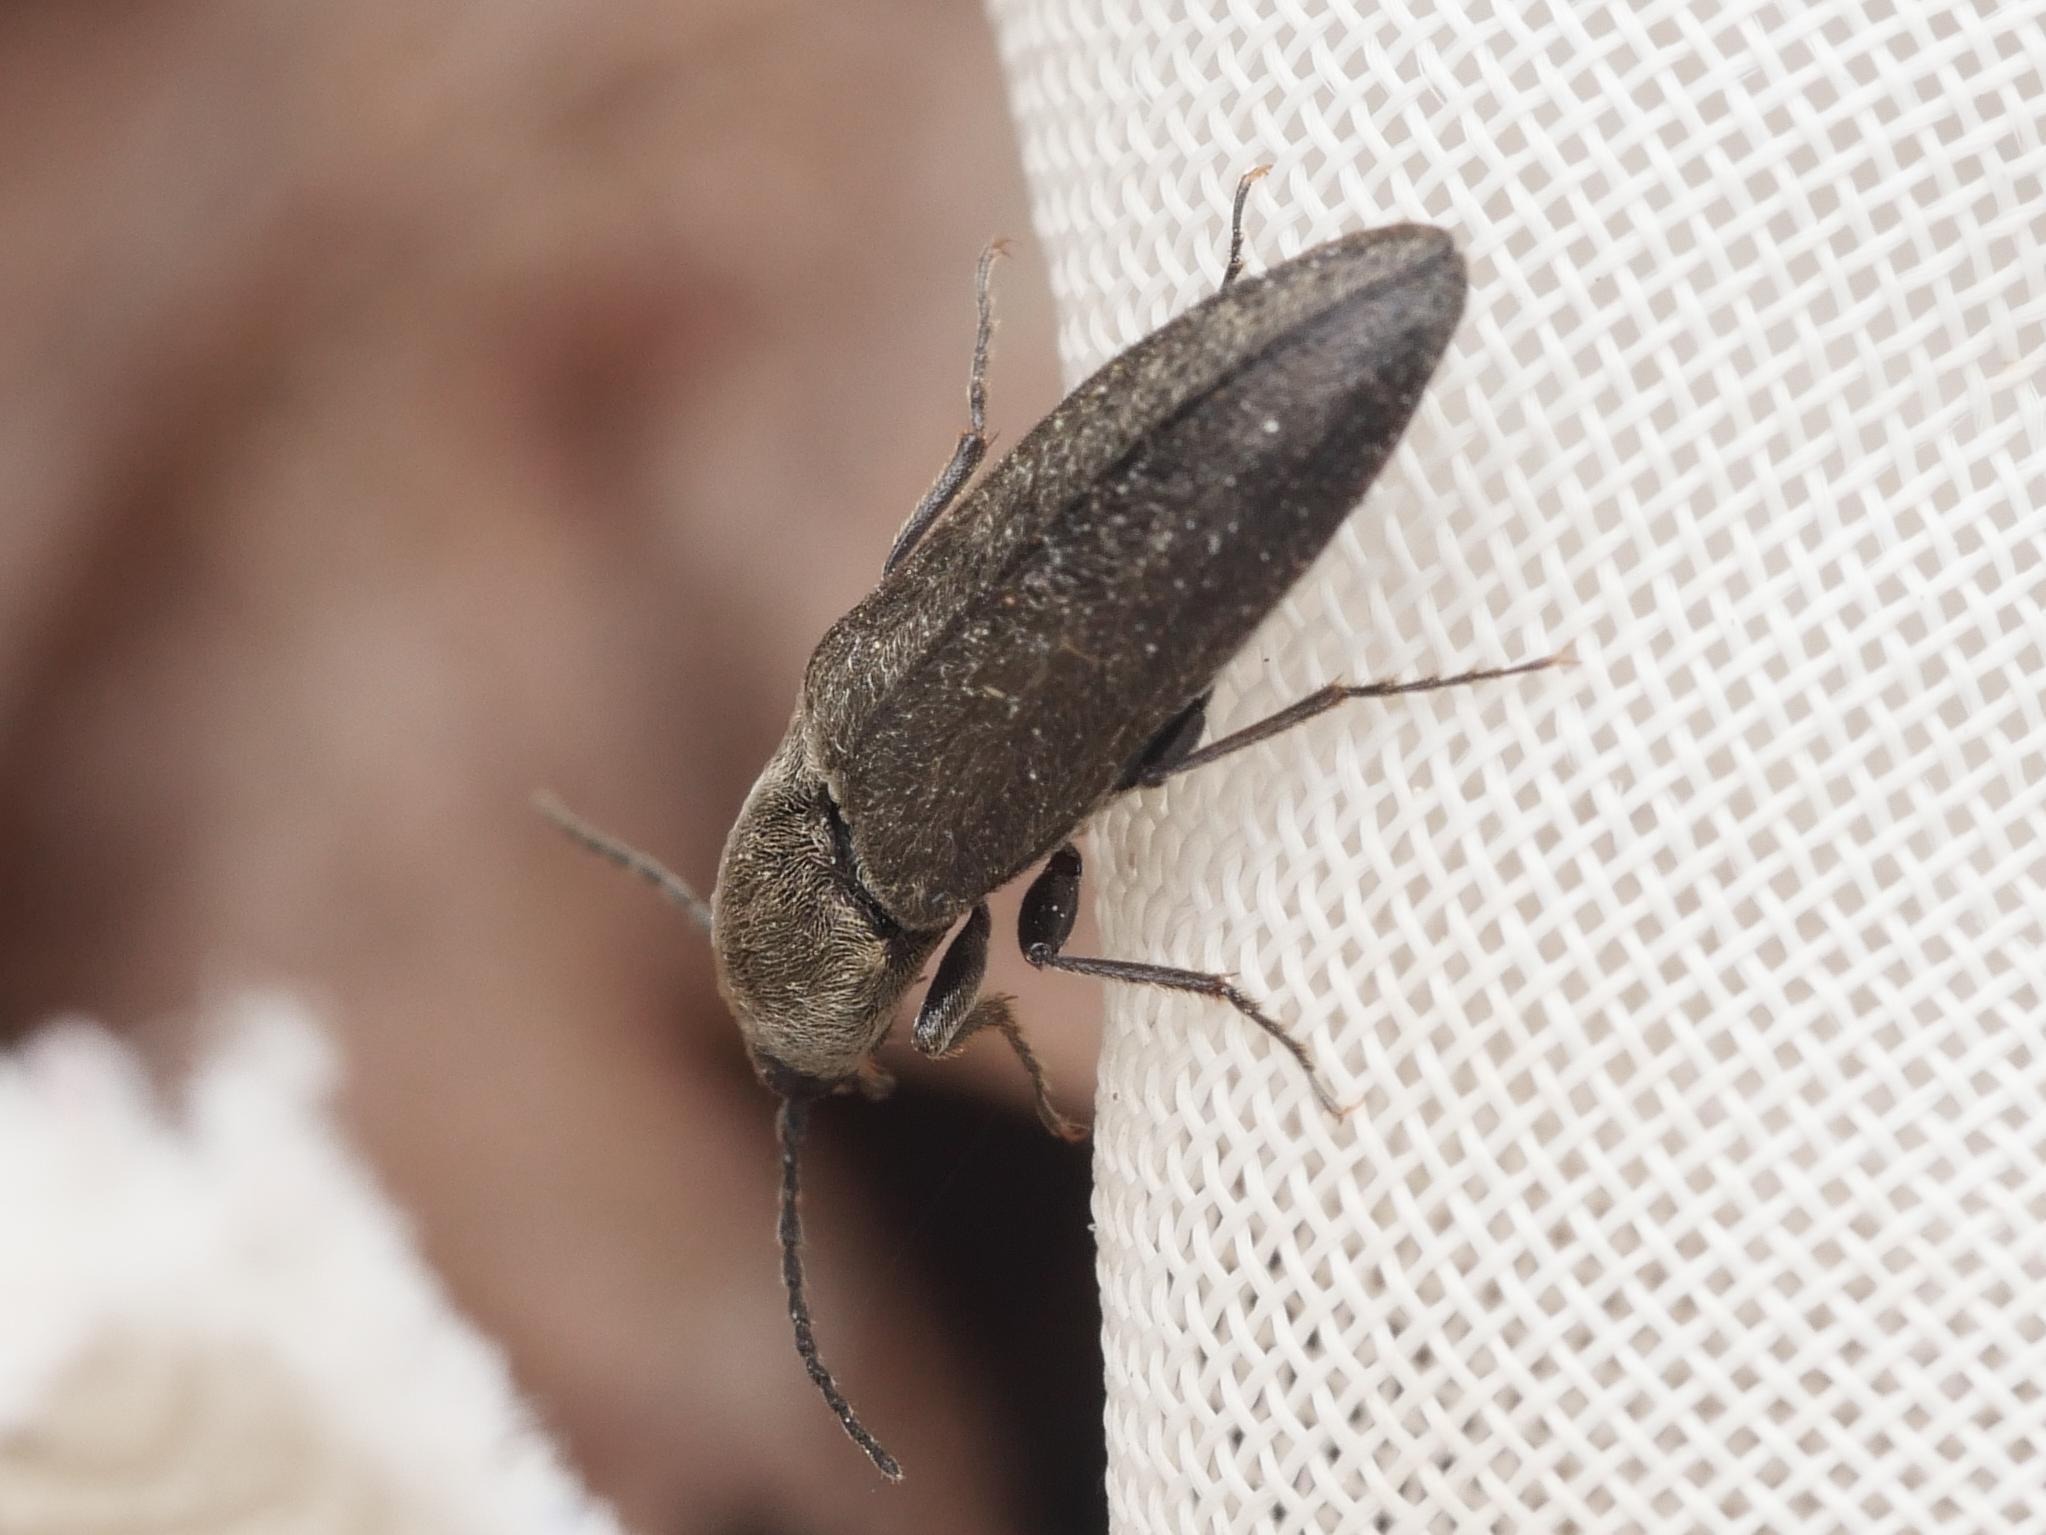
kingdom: Animalia
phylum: Arthropoda
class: Insecta
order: Coleoptera
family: Elateridae
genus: Cidnopus
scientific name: Cidnopus aeruginosus
